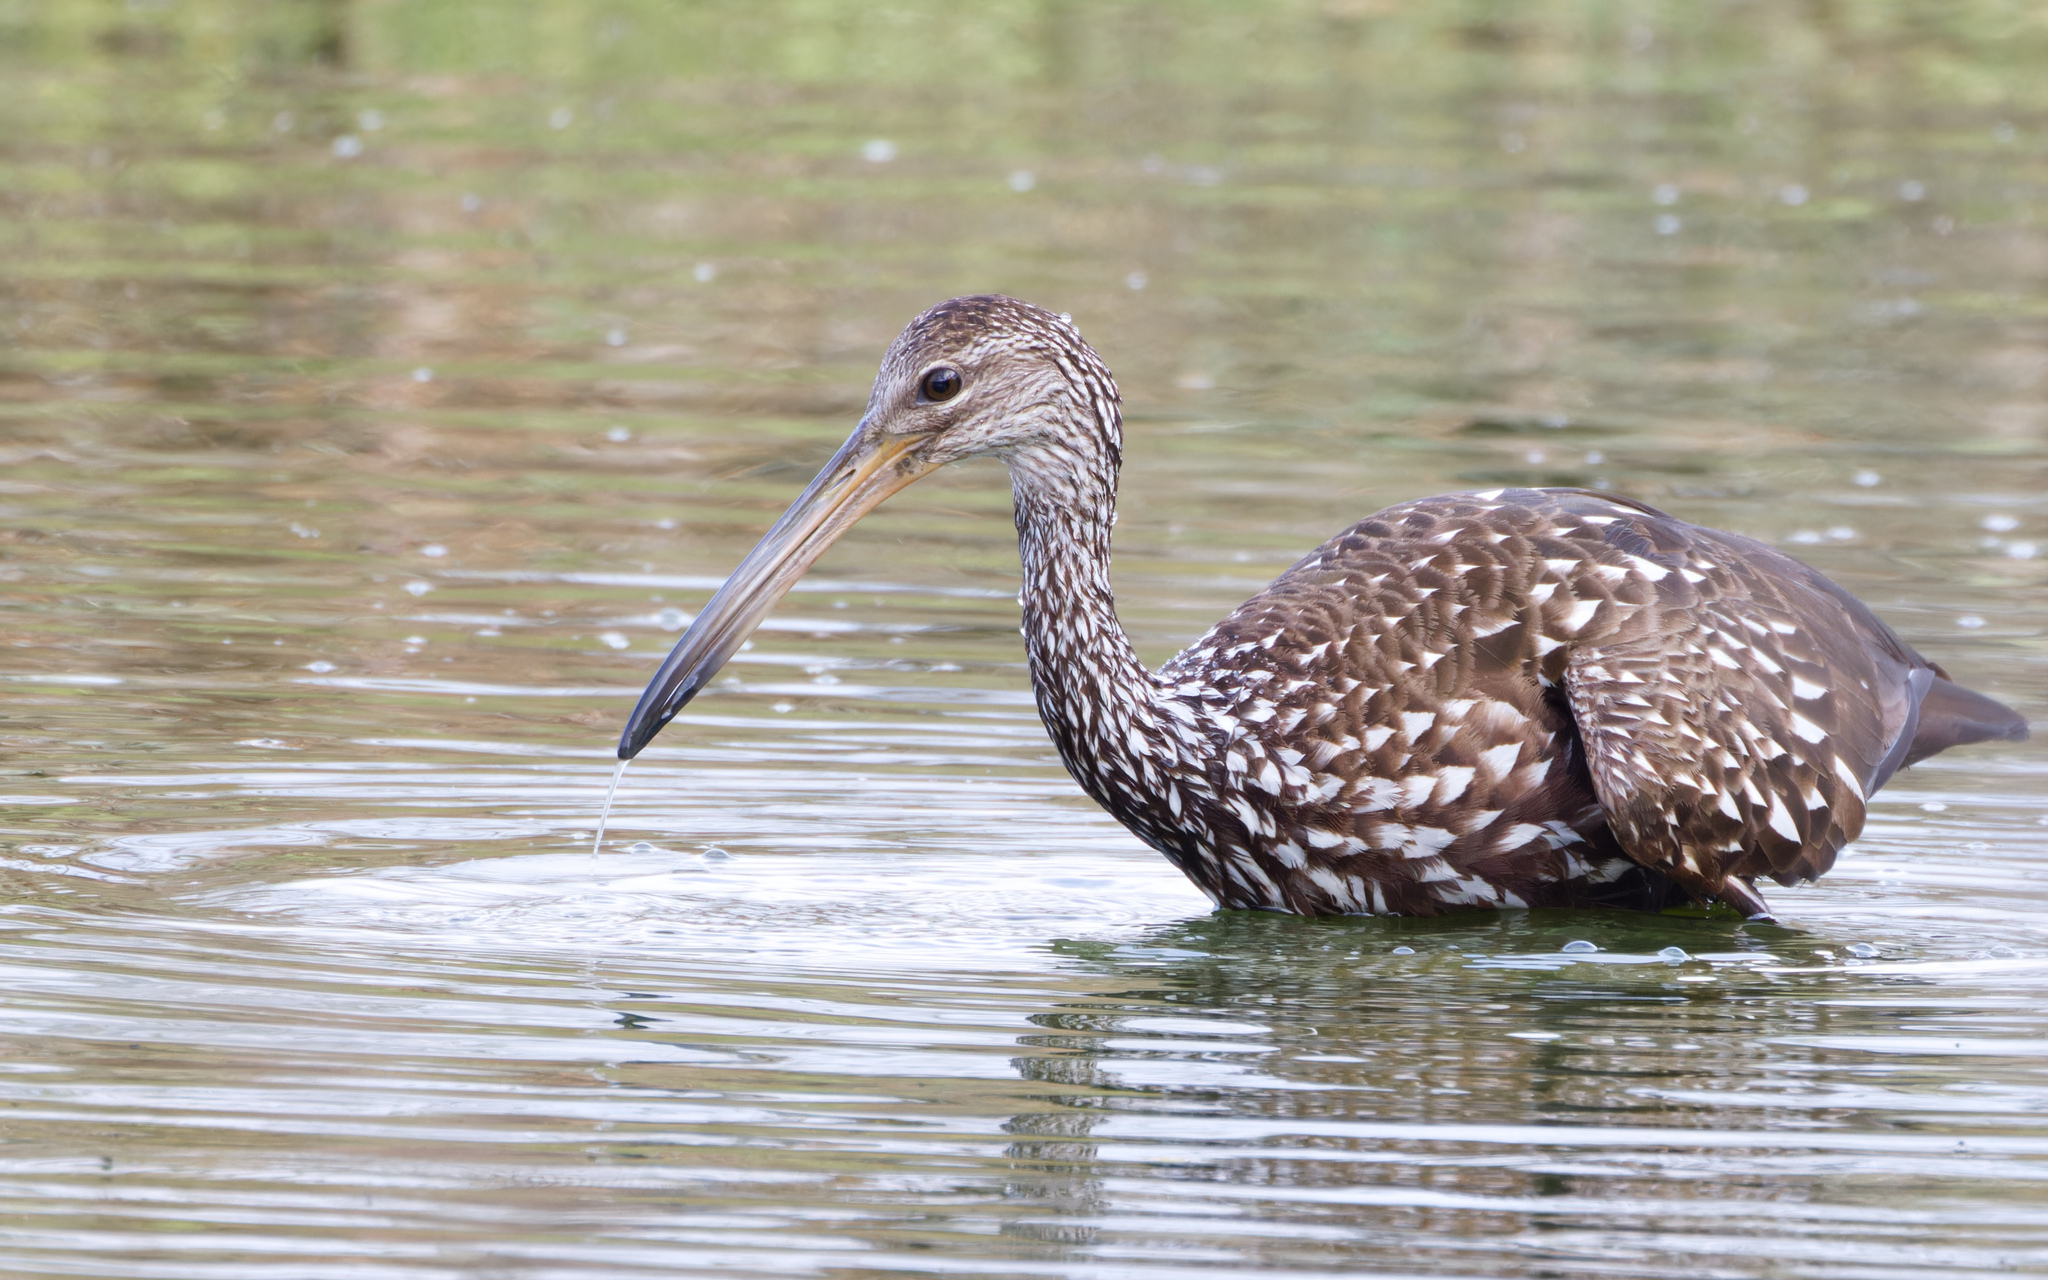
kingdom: Animalia
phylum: Chordata
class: Aves
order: Gruiformes
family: Aramidae
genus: Aramus
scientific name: Aramus guarauna
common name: Limpkin
